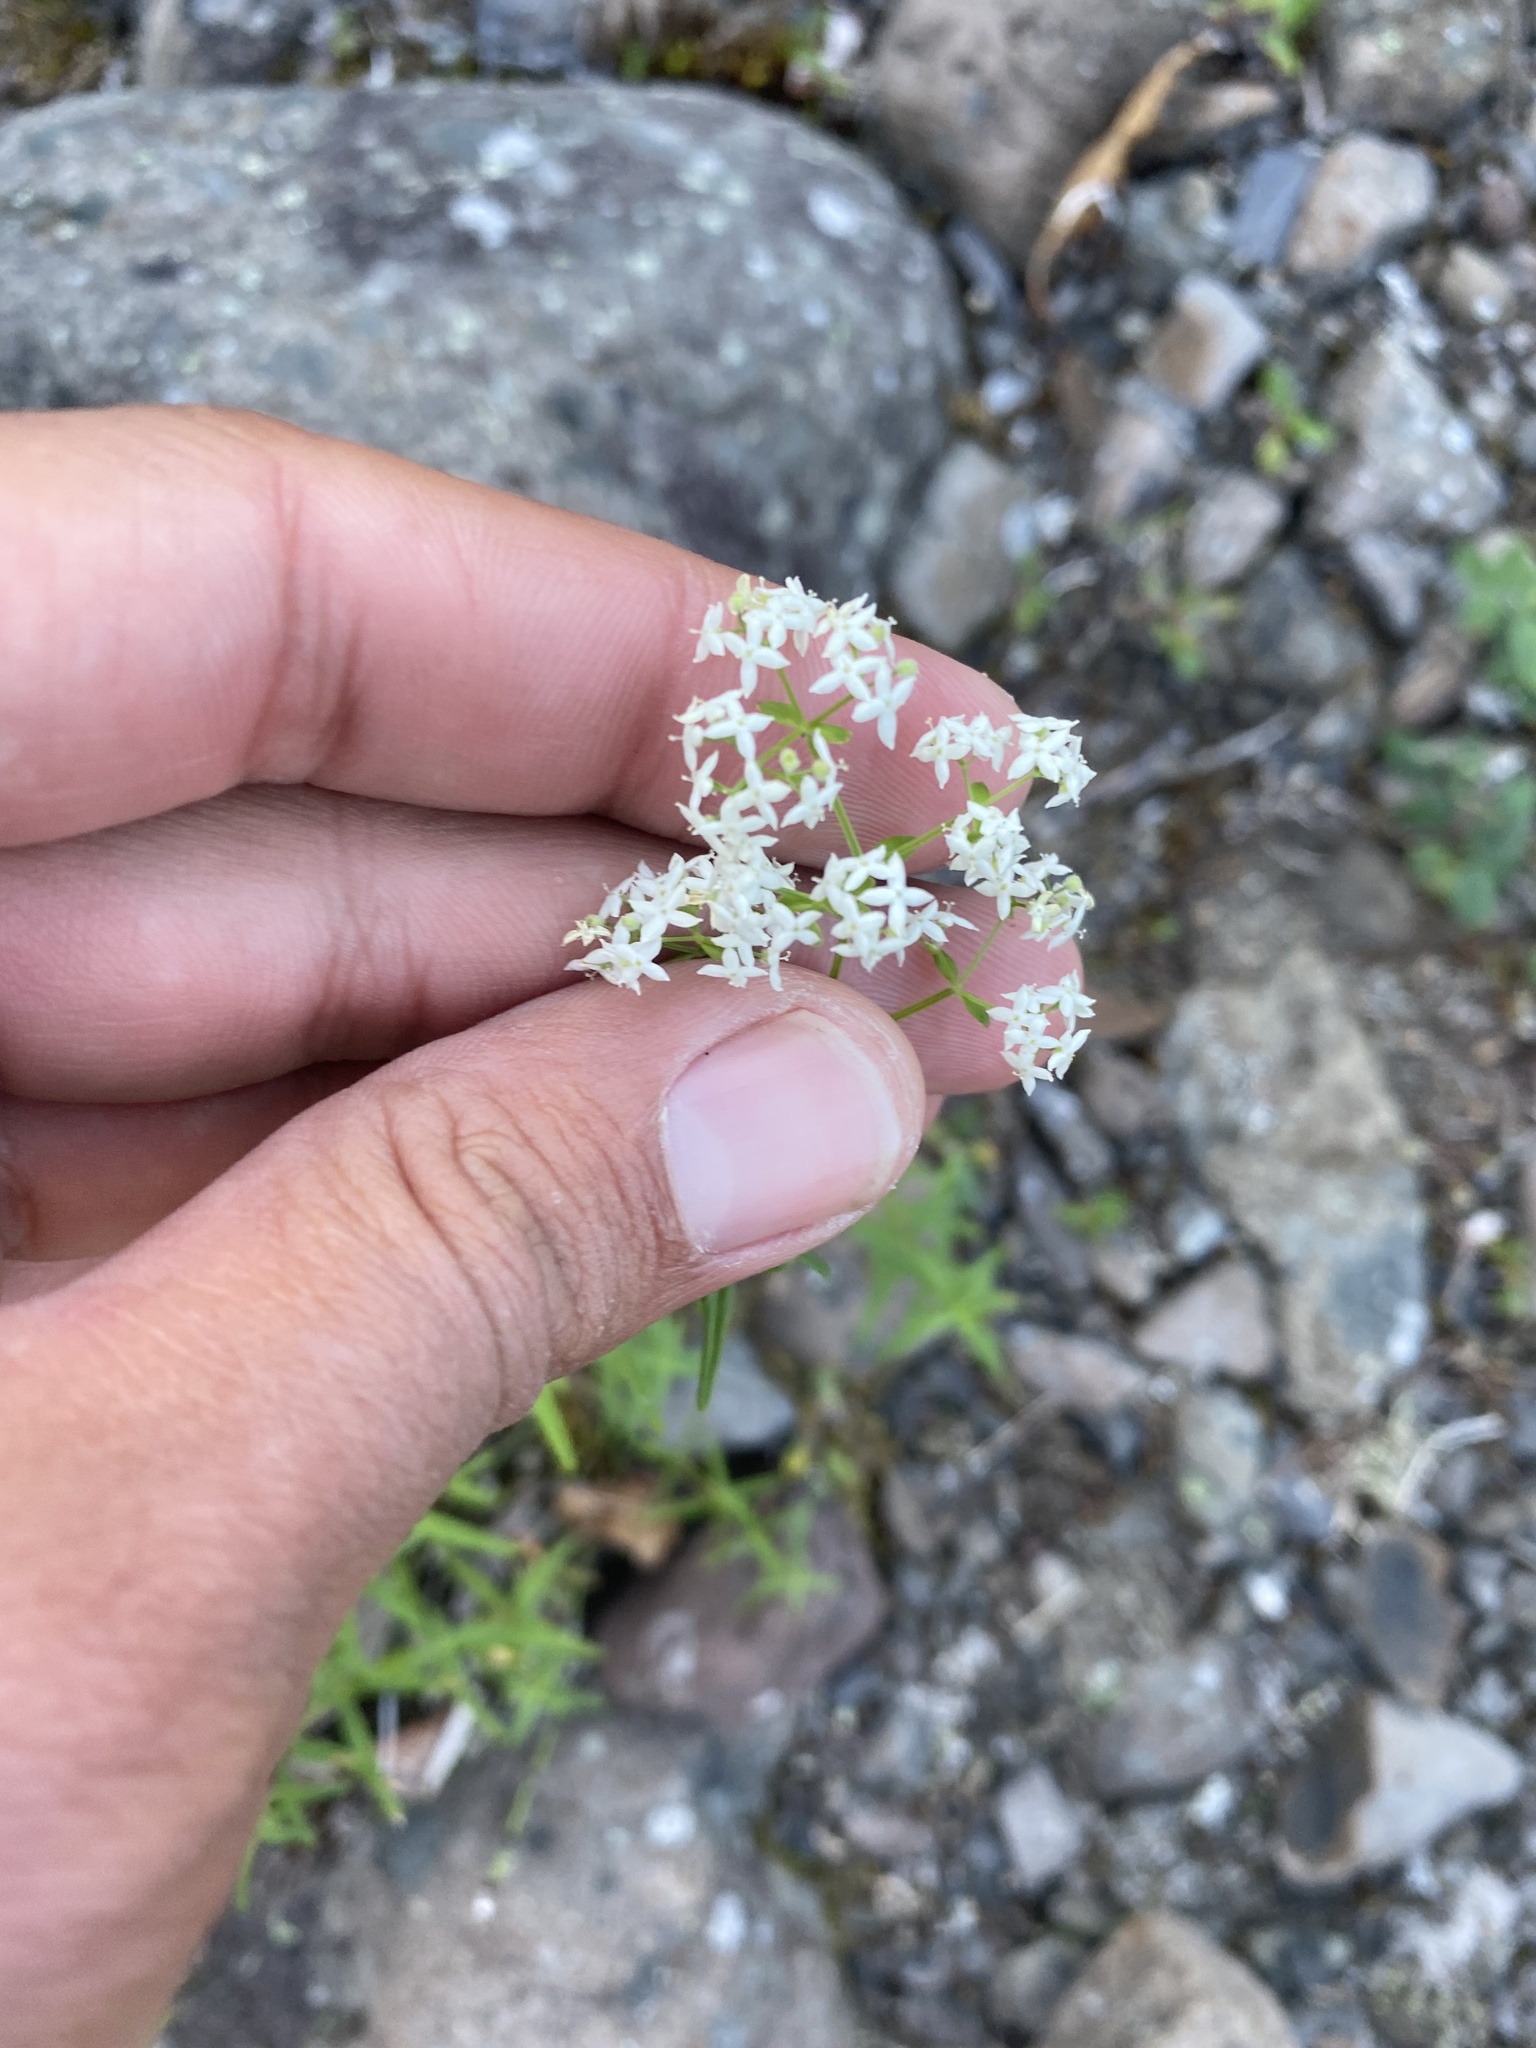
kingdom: Plantae
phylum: Tracheophyta
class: Magnoliopsida
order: Gentianales
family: Rubiaceae
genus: Galium
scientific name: Galium boreale
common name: Northern bedstraw
